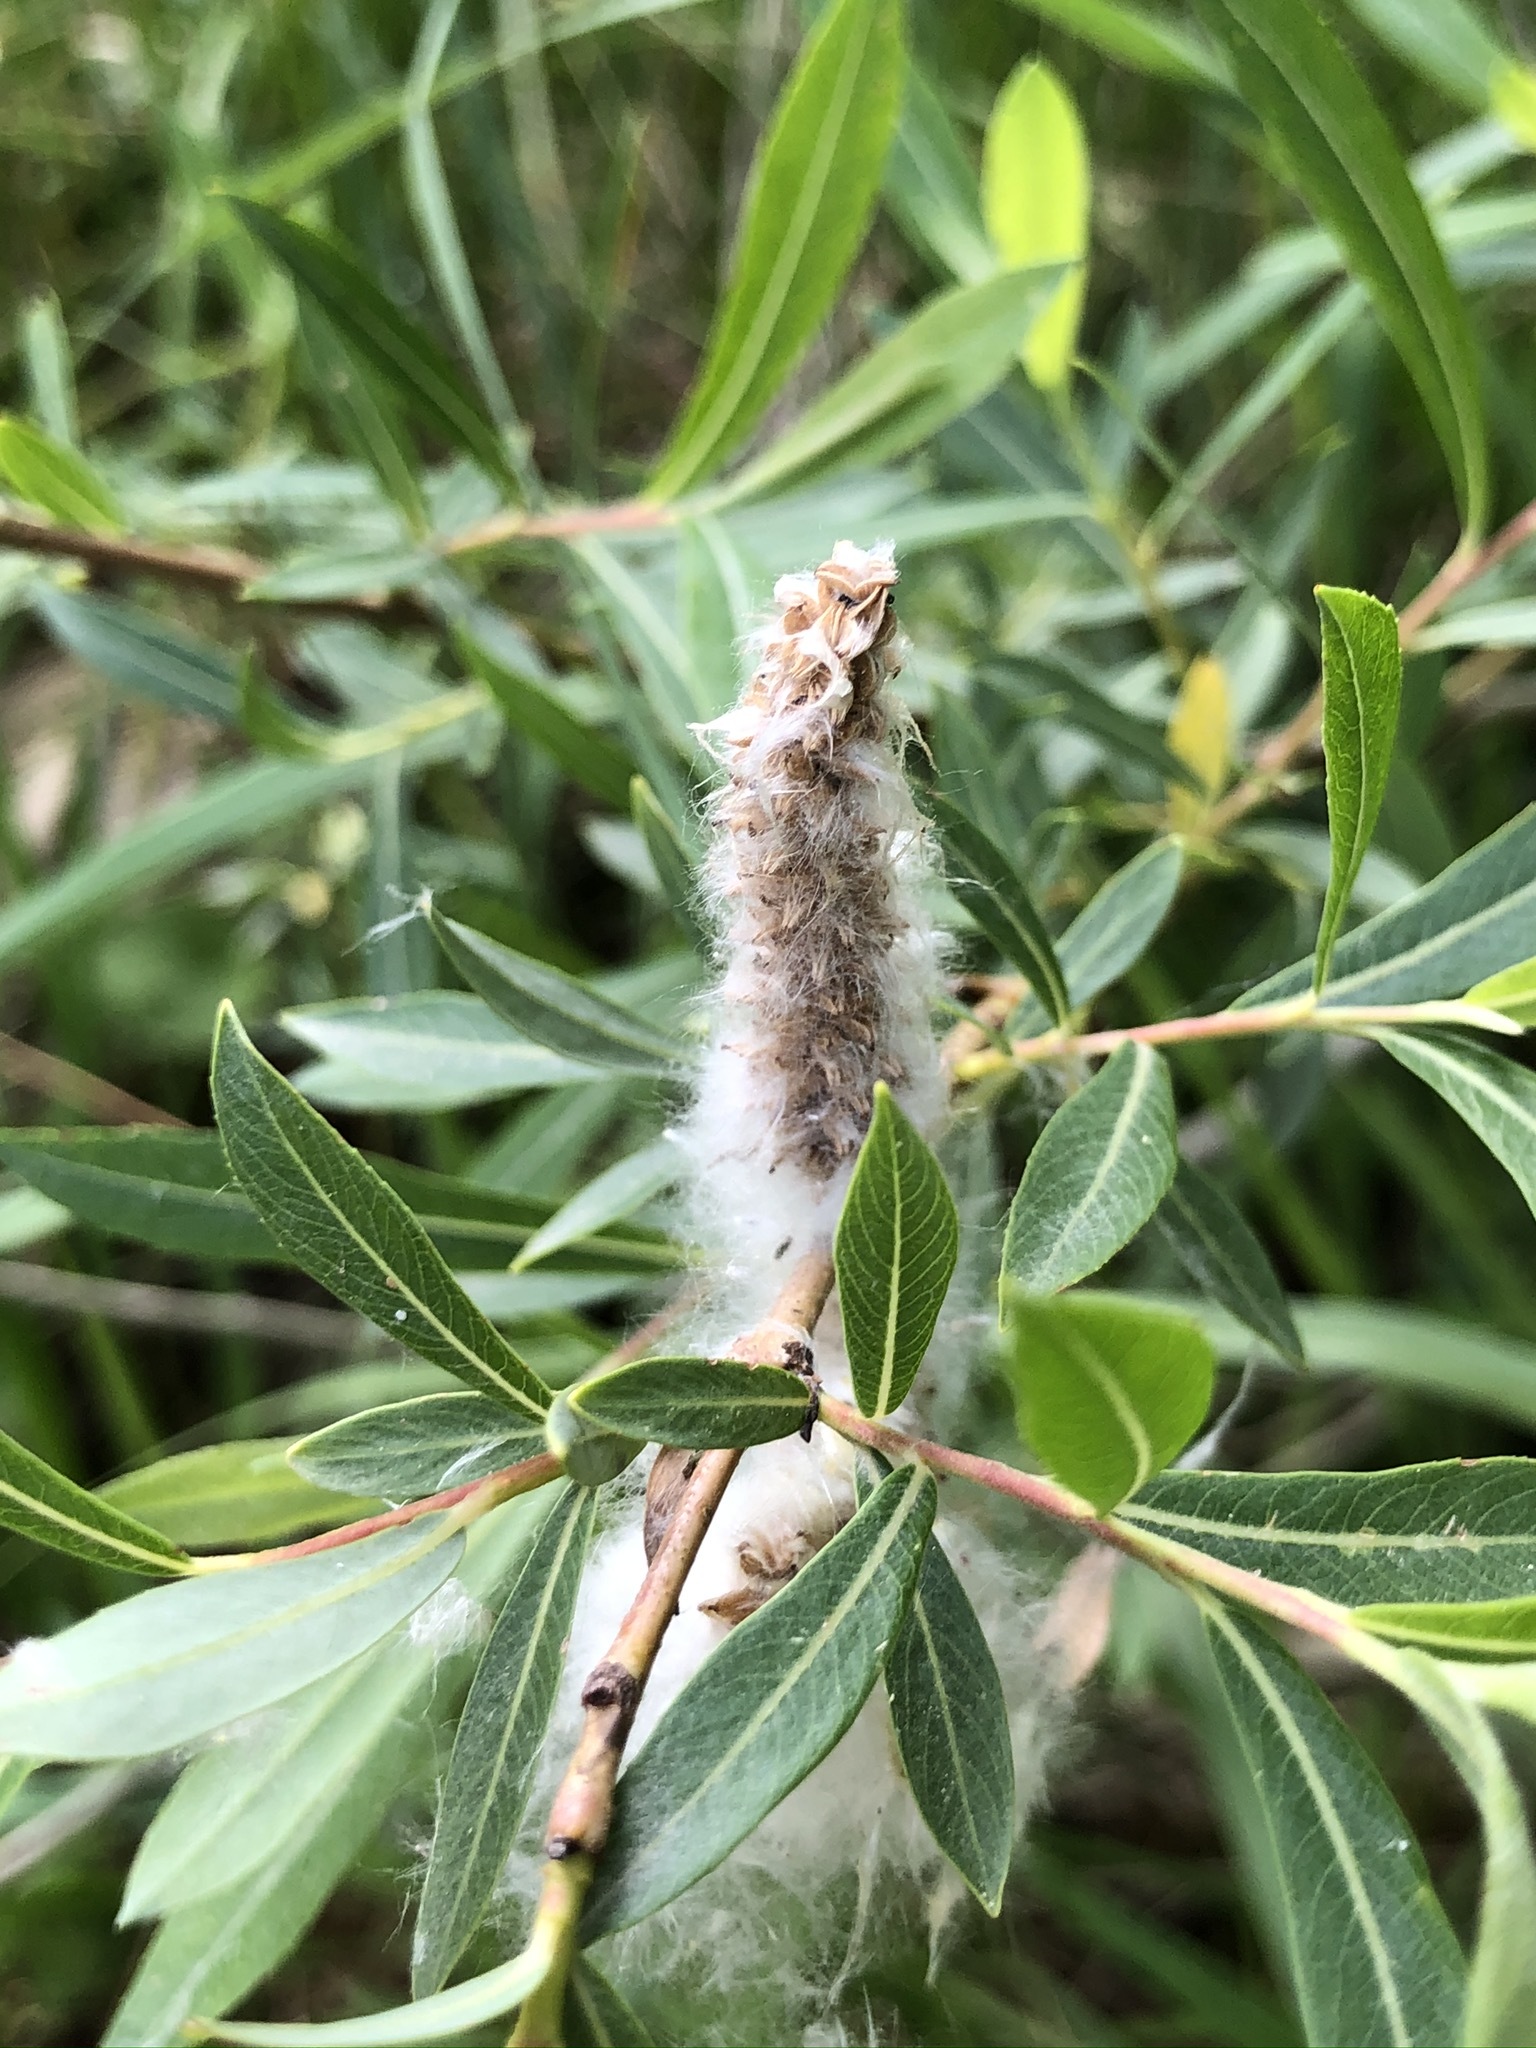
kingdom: Plantae
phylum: Tracheophyta
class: Magnoliopsida
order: Malpighiales
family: Salicaceae
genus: Salix
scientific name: Salix alba
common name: White willow
